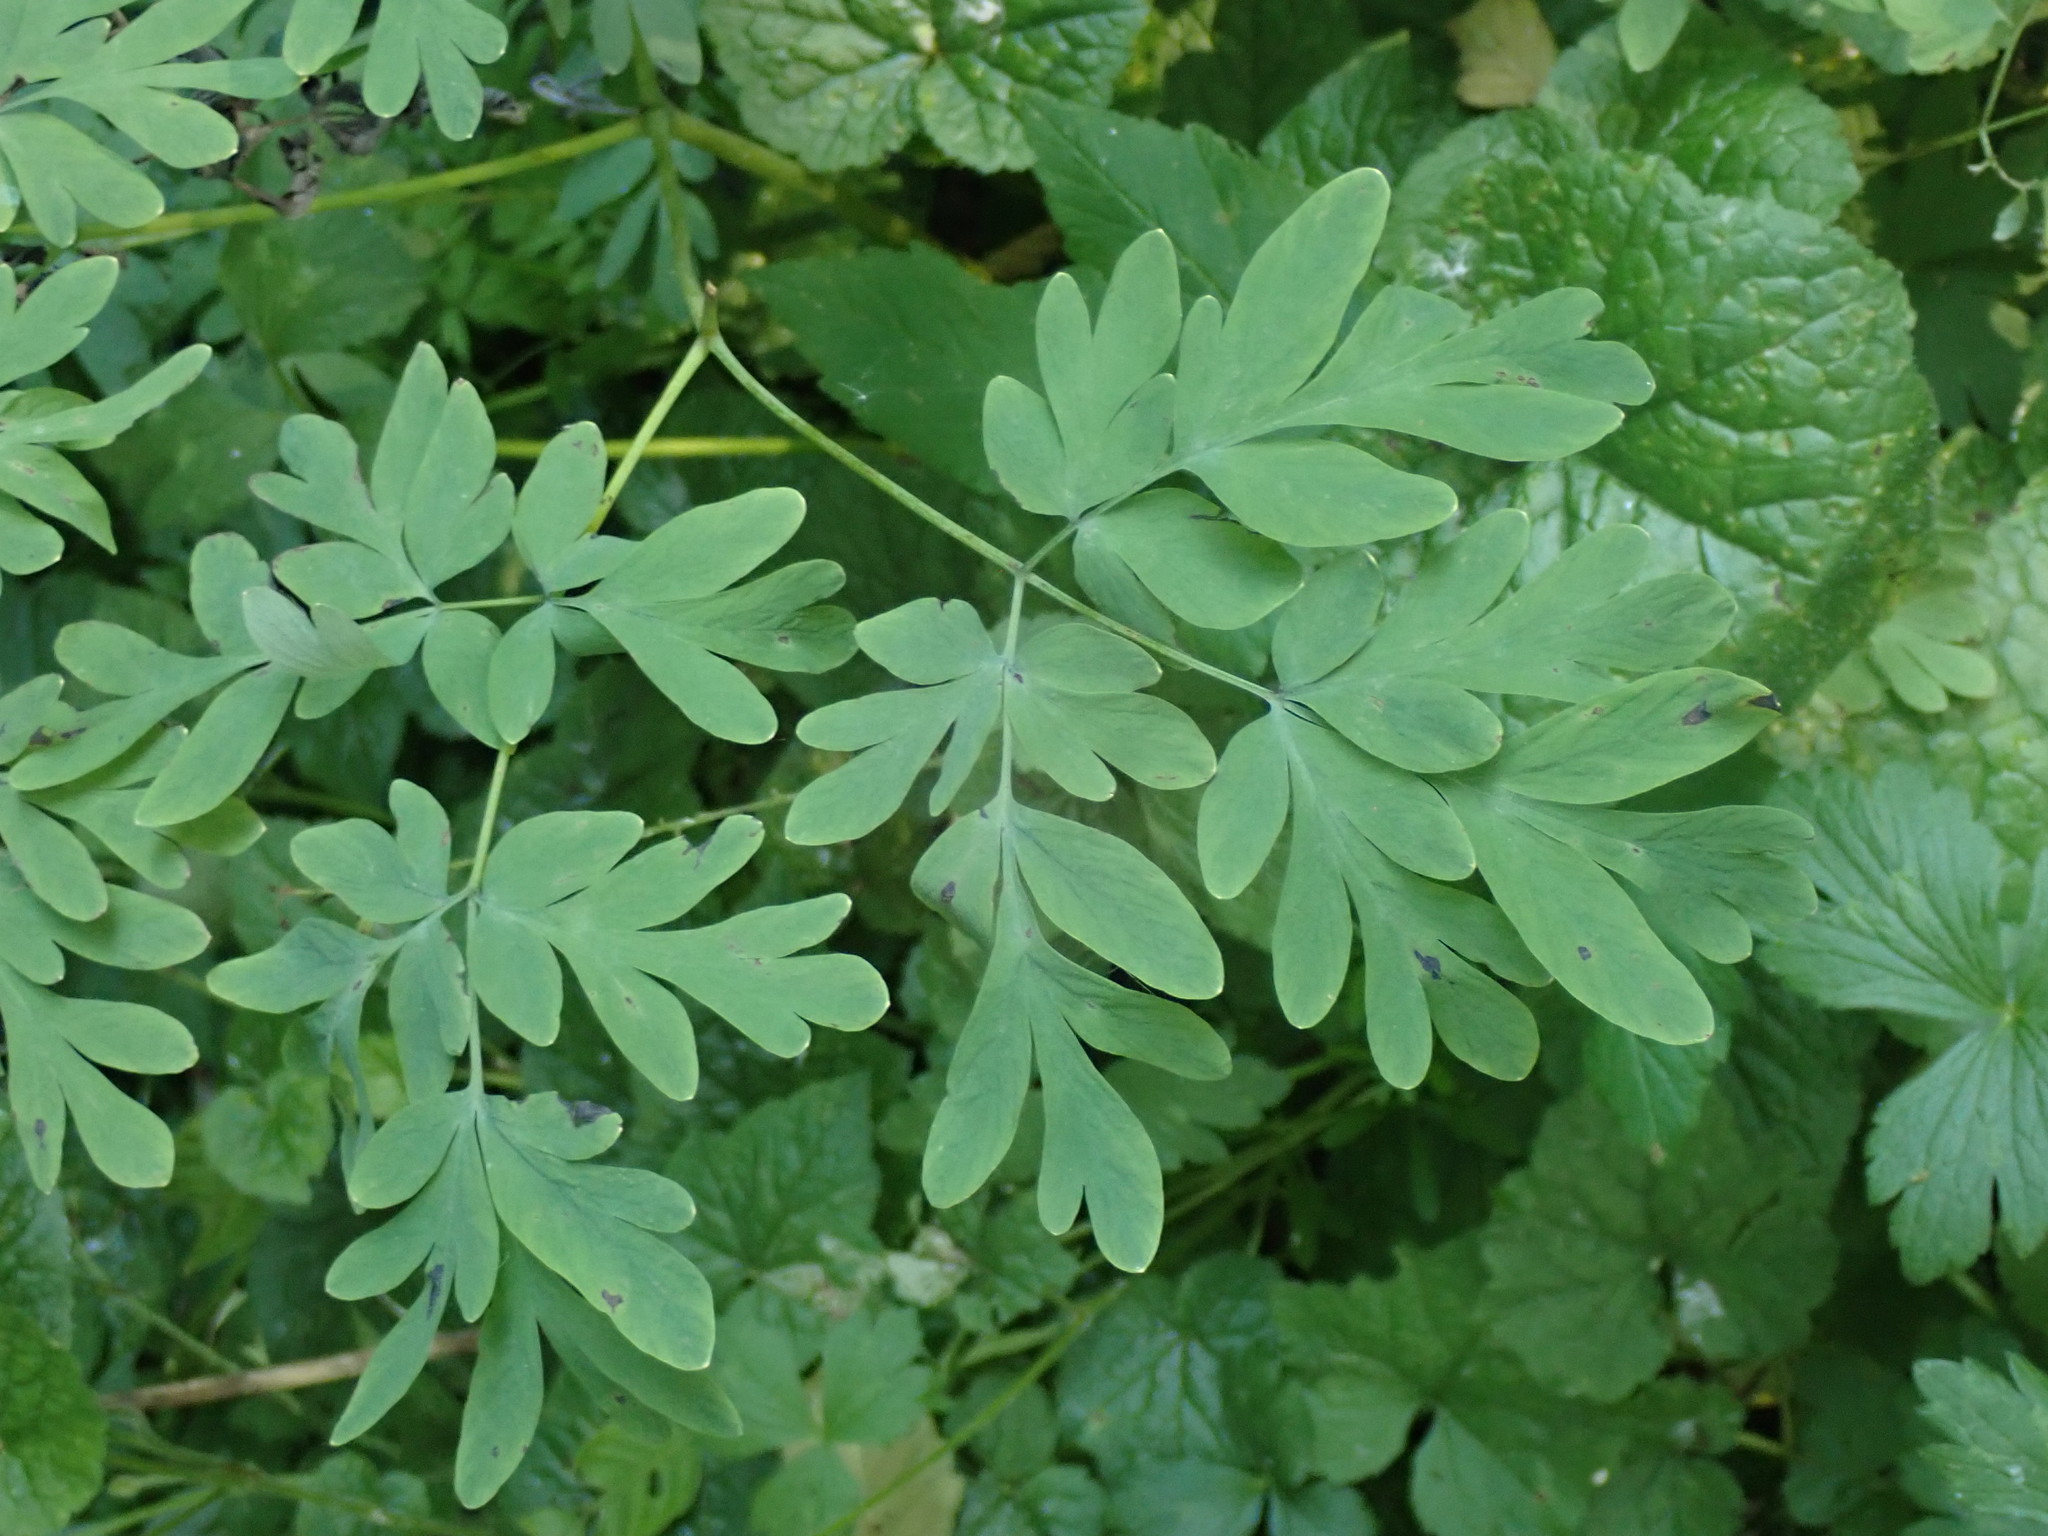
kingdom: Plantae
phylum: Tracheophyta
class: Magnoliopsida
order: Ranunculales
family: Papaveraceae
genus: Corydalis
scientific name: Corydalis scouleri
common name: Scouler's corydalis
